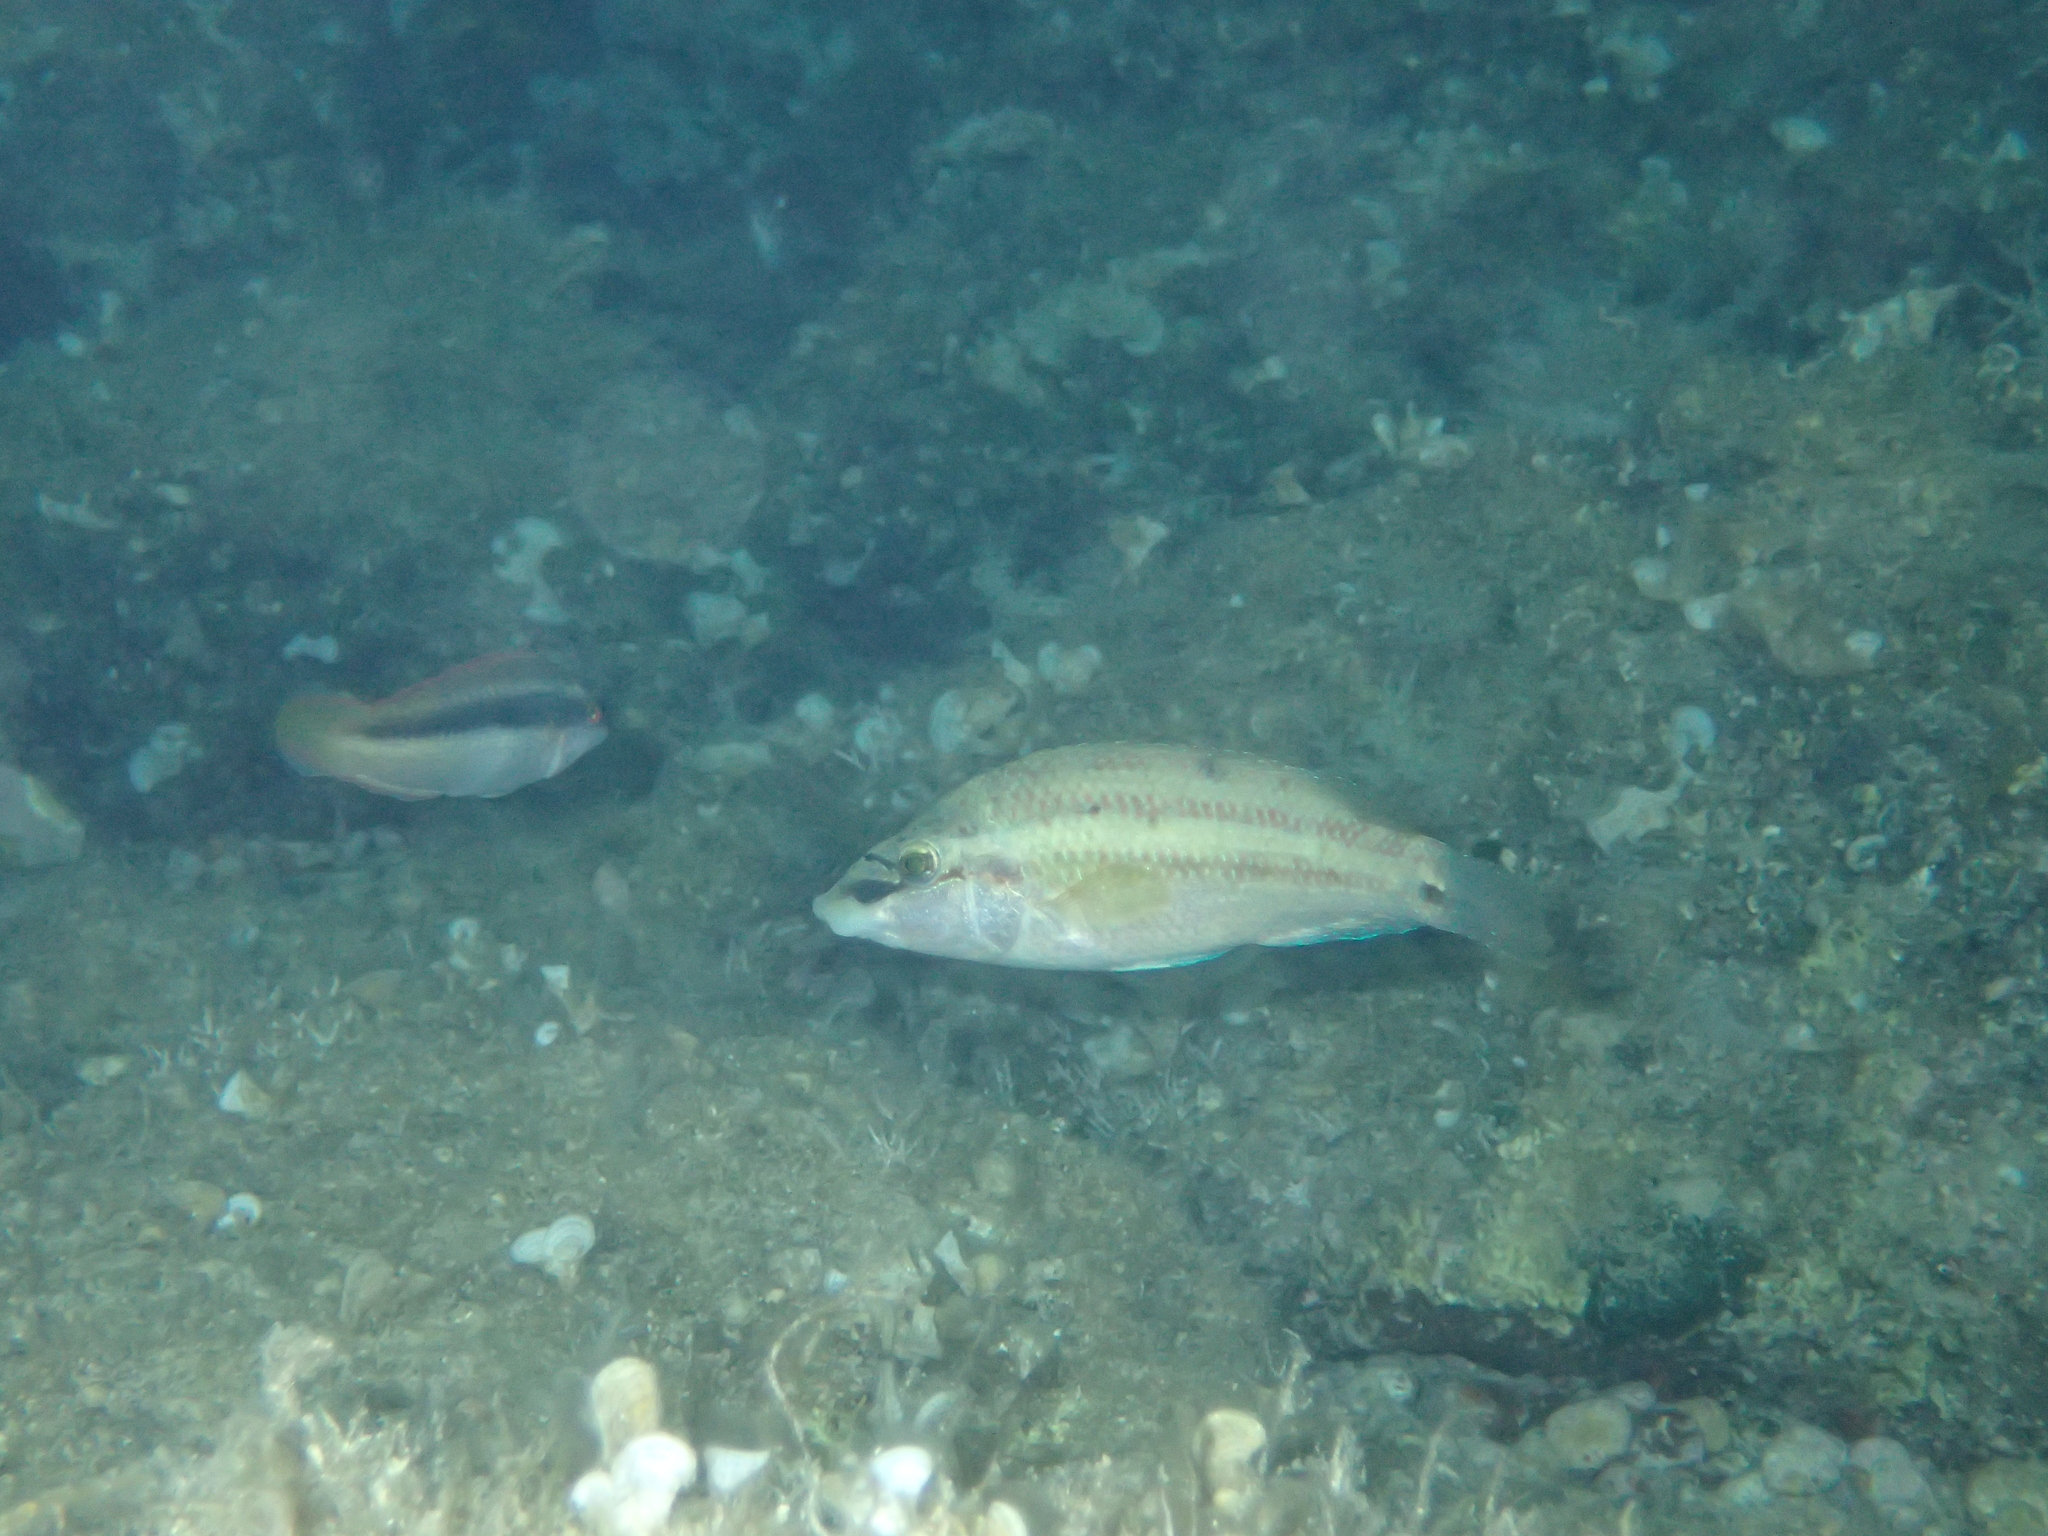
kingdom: Animalia
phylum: Chordata
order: Perciformes
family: Labridae
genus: Symphodus
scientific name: Symphodus tinca
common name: Peacock wrasse
